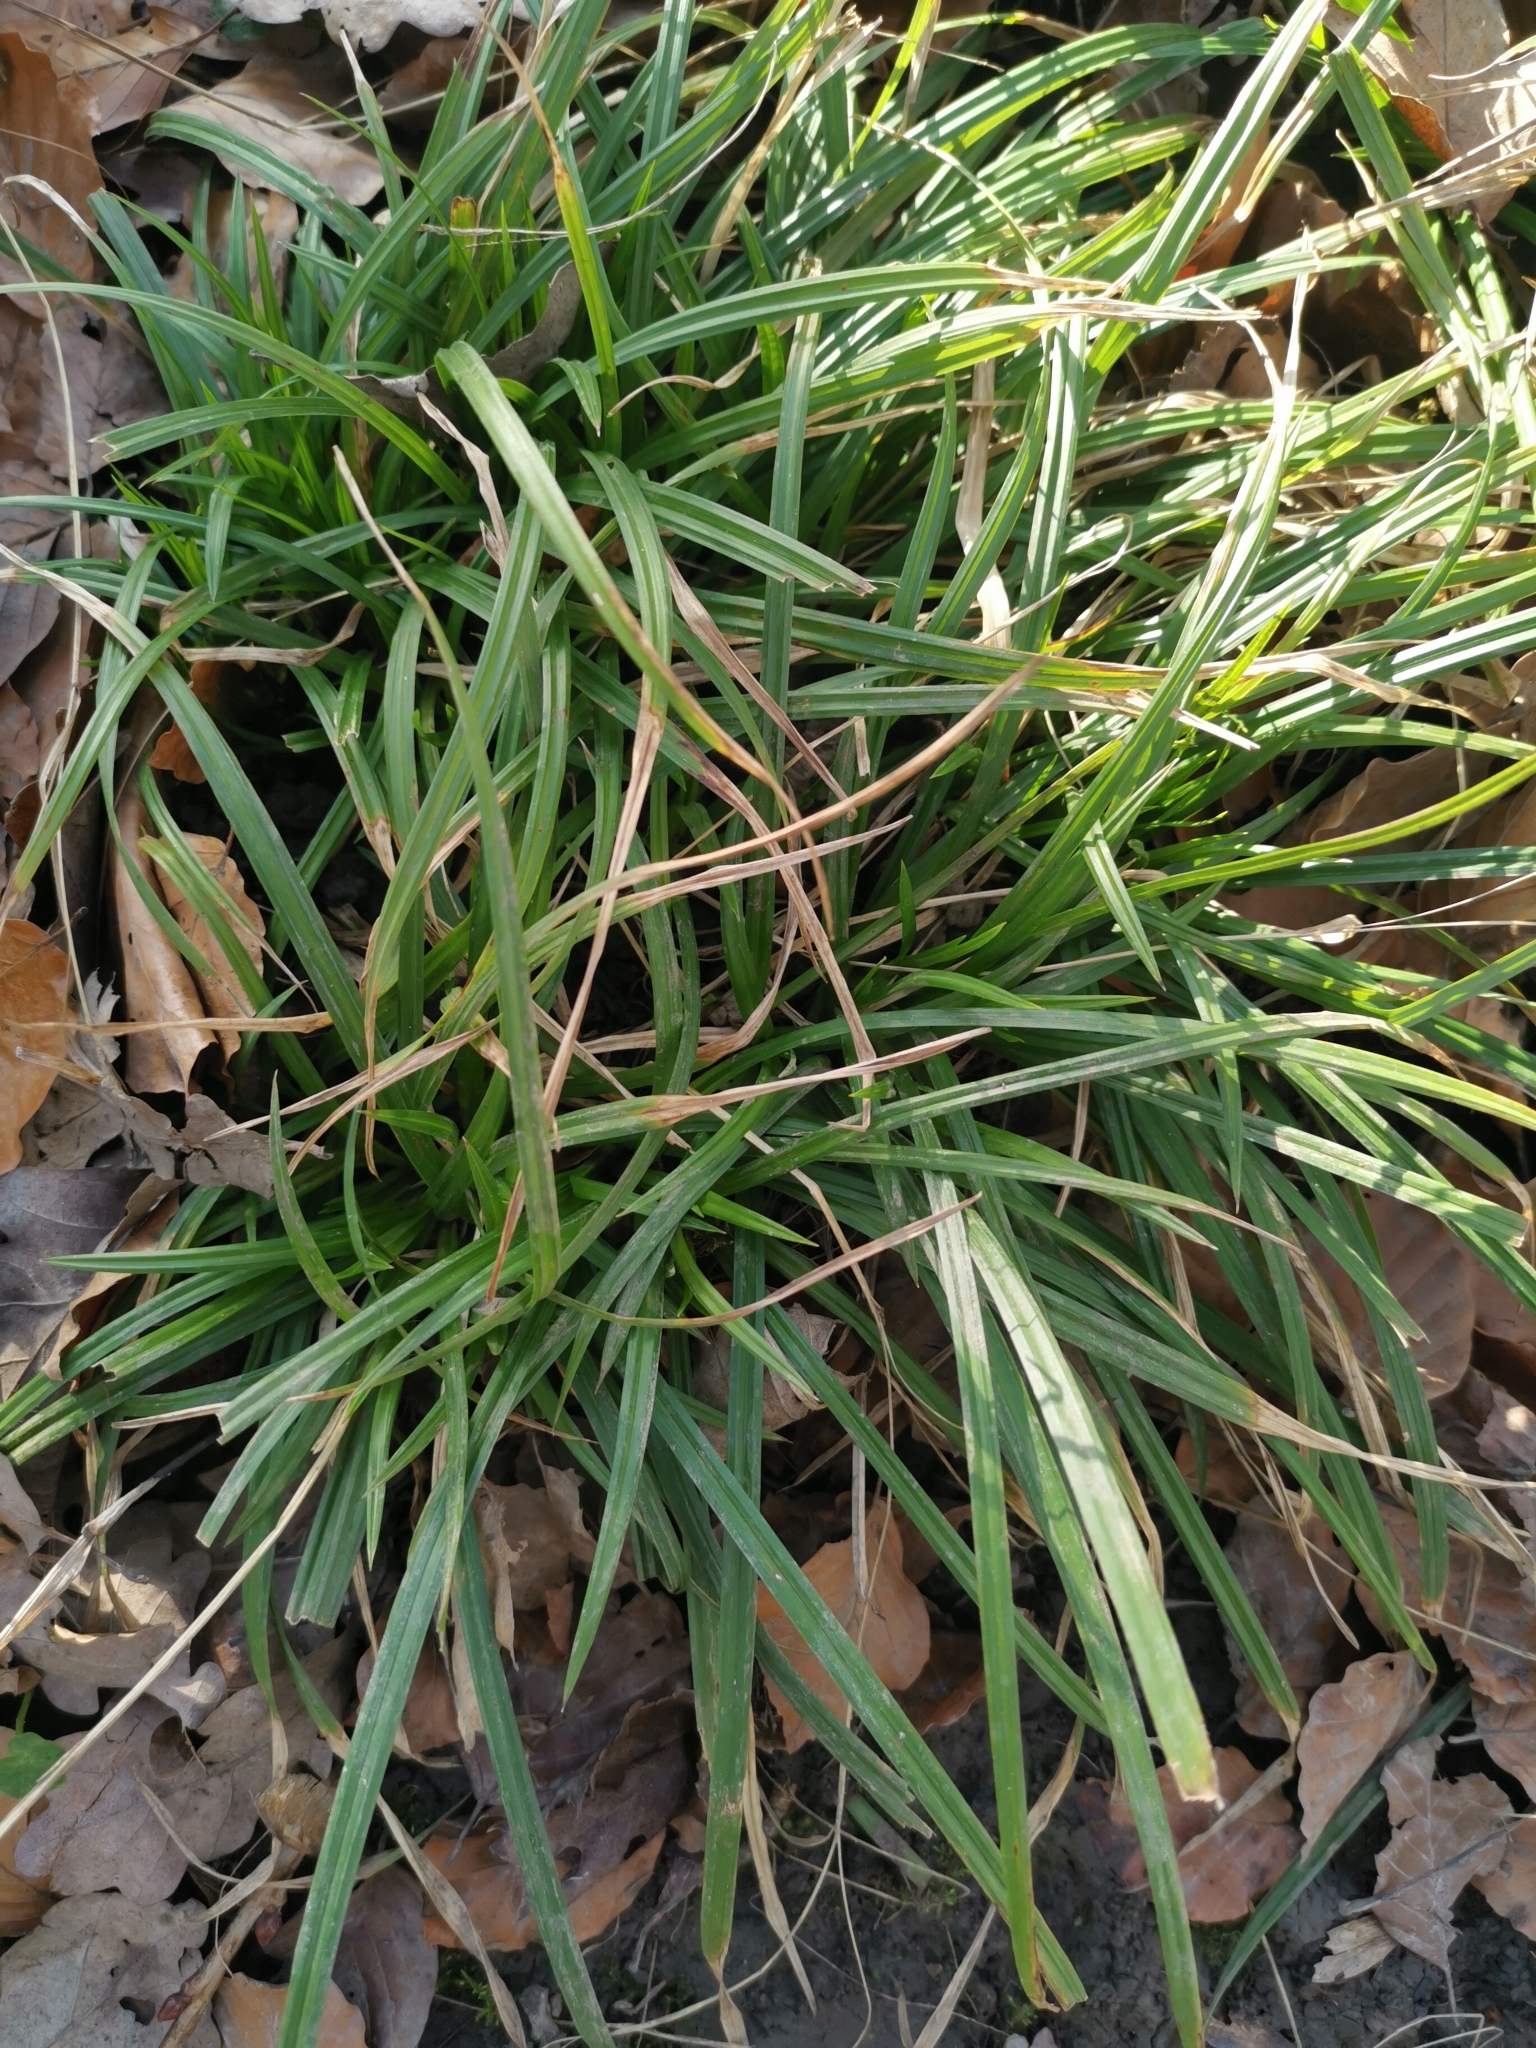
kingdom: Plantae
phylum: Tracheophyta
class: Liliopsida
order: Poales
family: Cyperaceae
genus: Carex
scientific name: Carex sylvatica
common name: Wood-sedge
